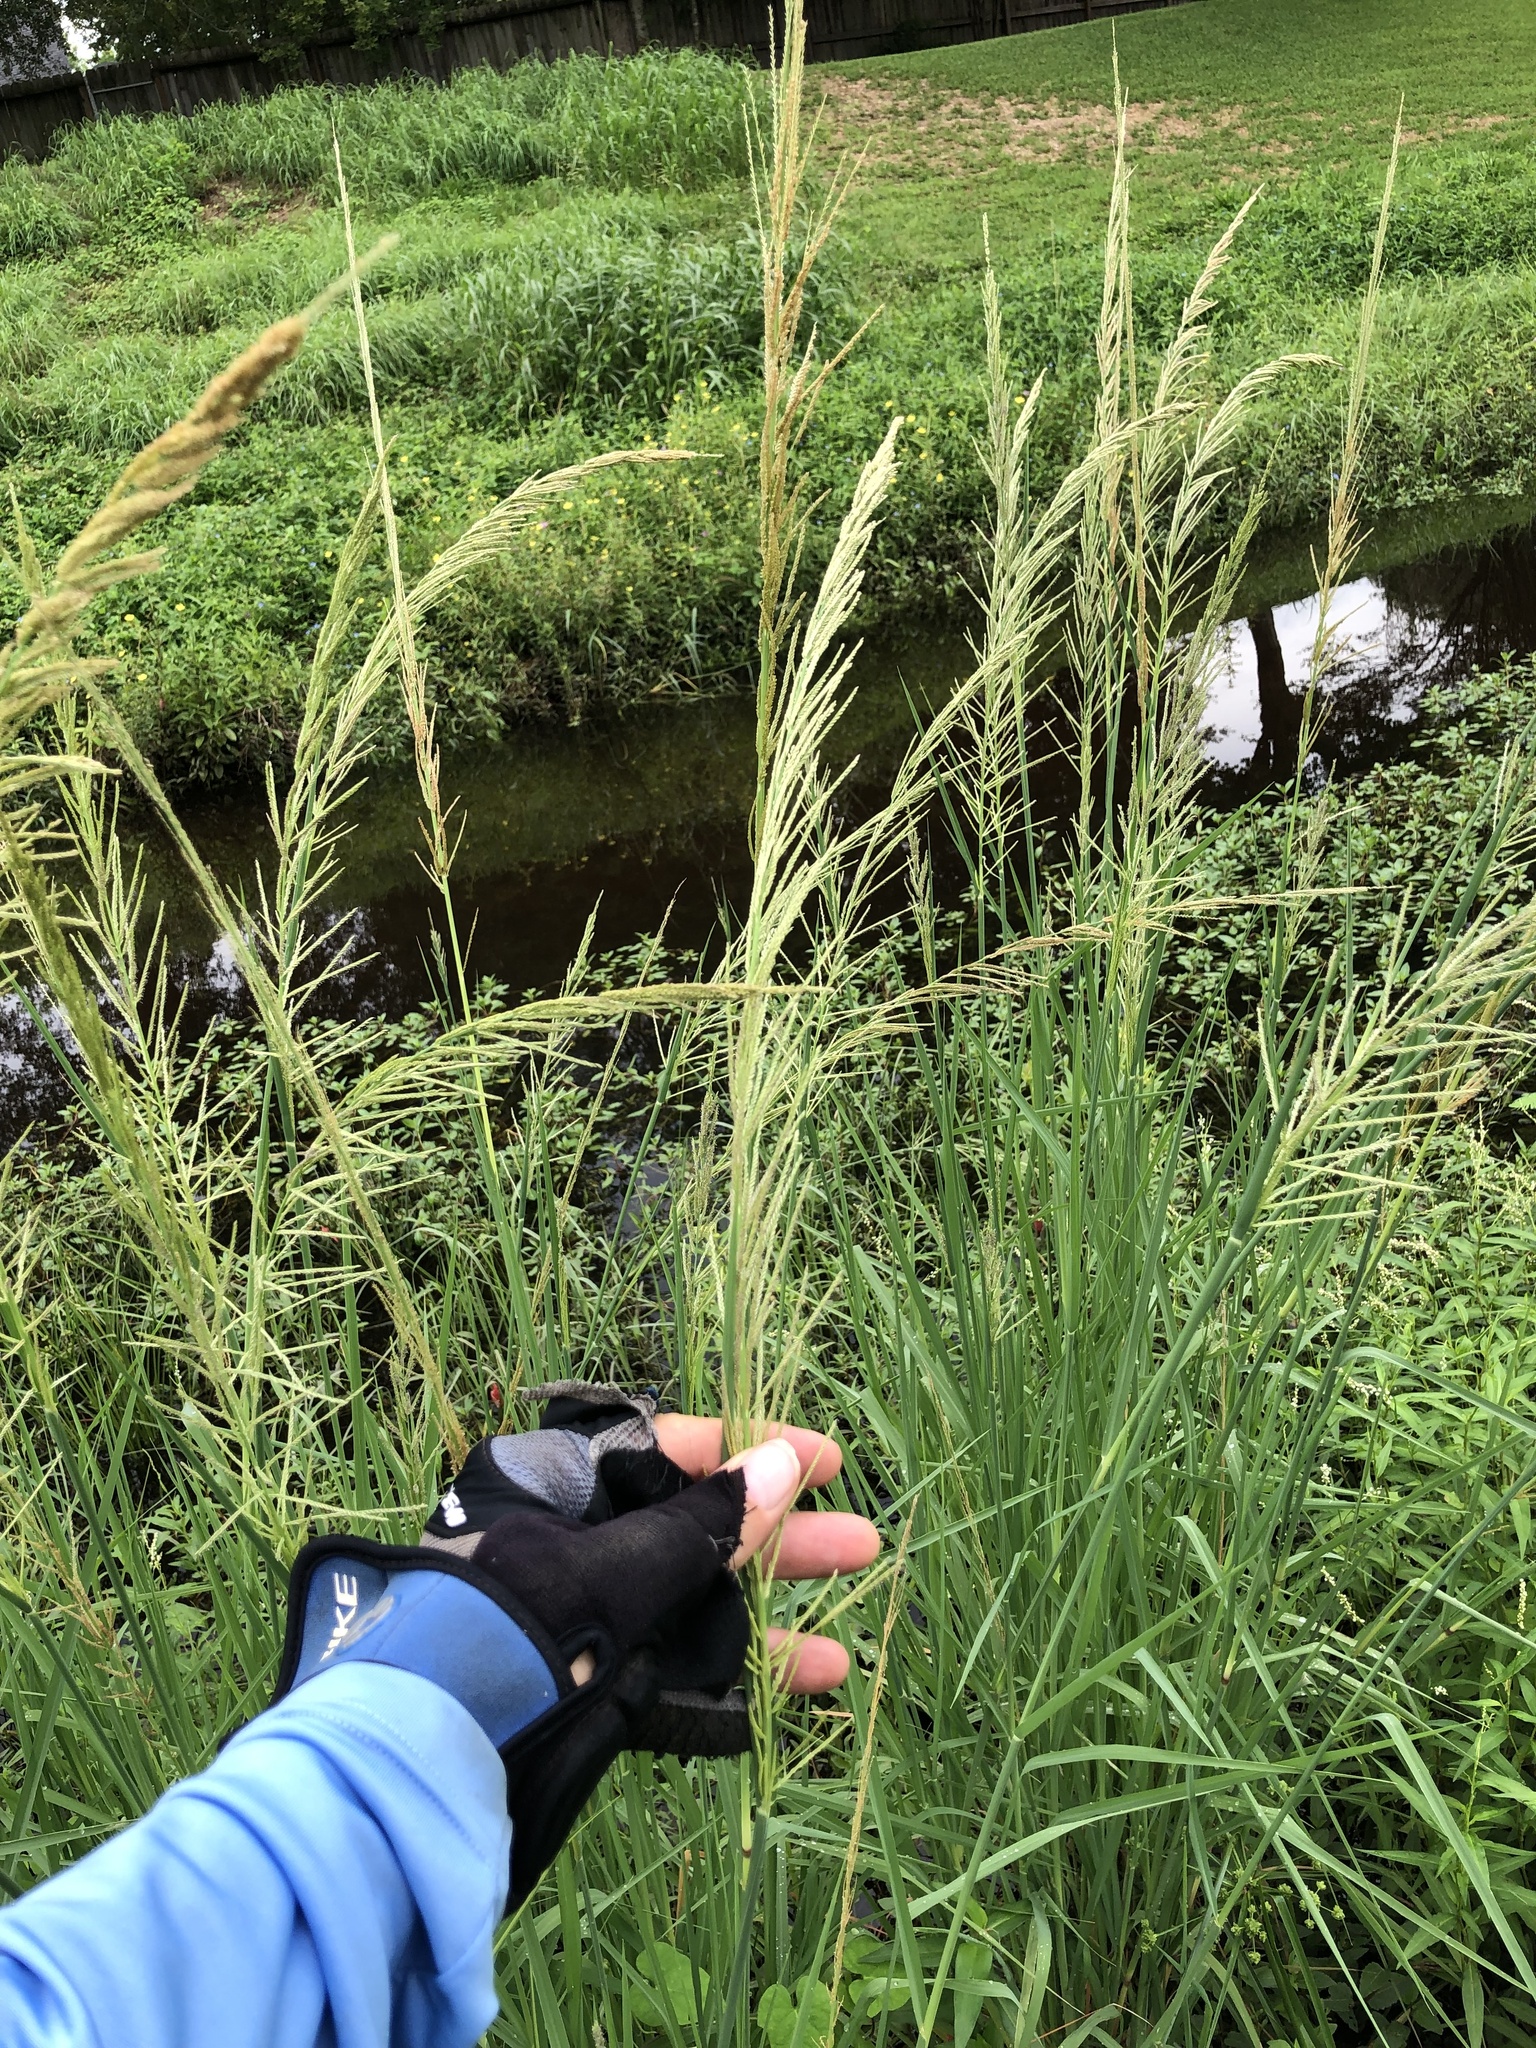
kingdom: Plantae
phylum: Tracheophyta
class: Liliopsida
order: Poales
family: Poaceae
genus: Leptochloa
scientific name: Leptochloa nealleyi
